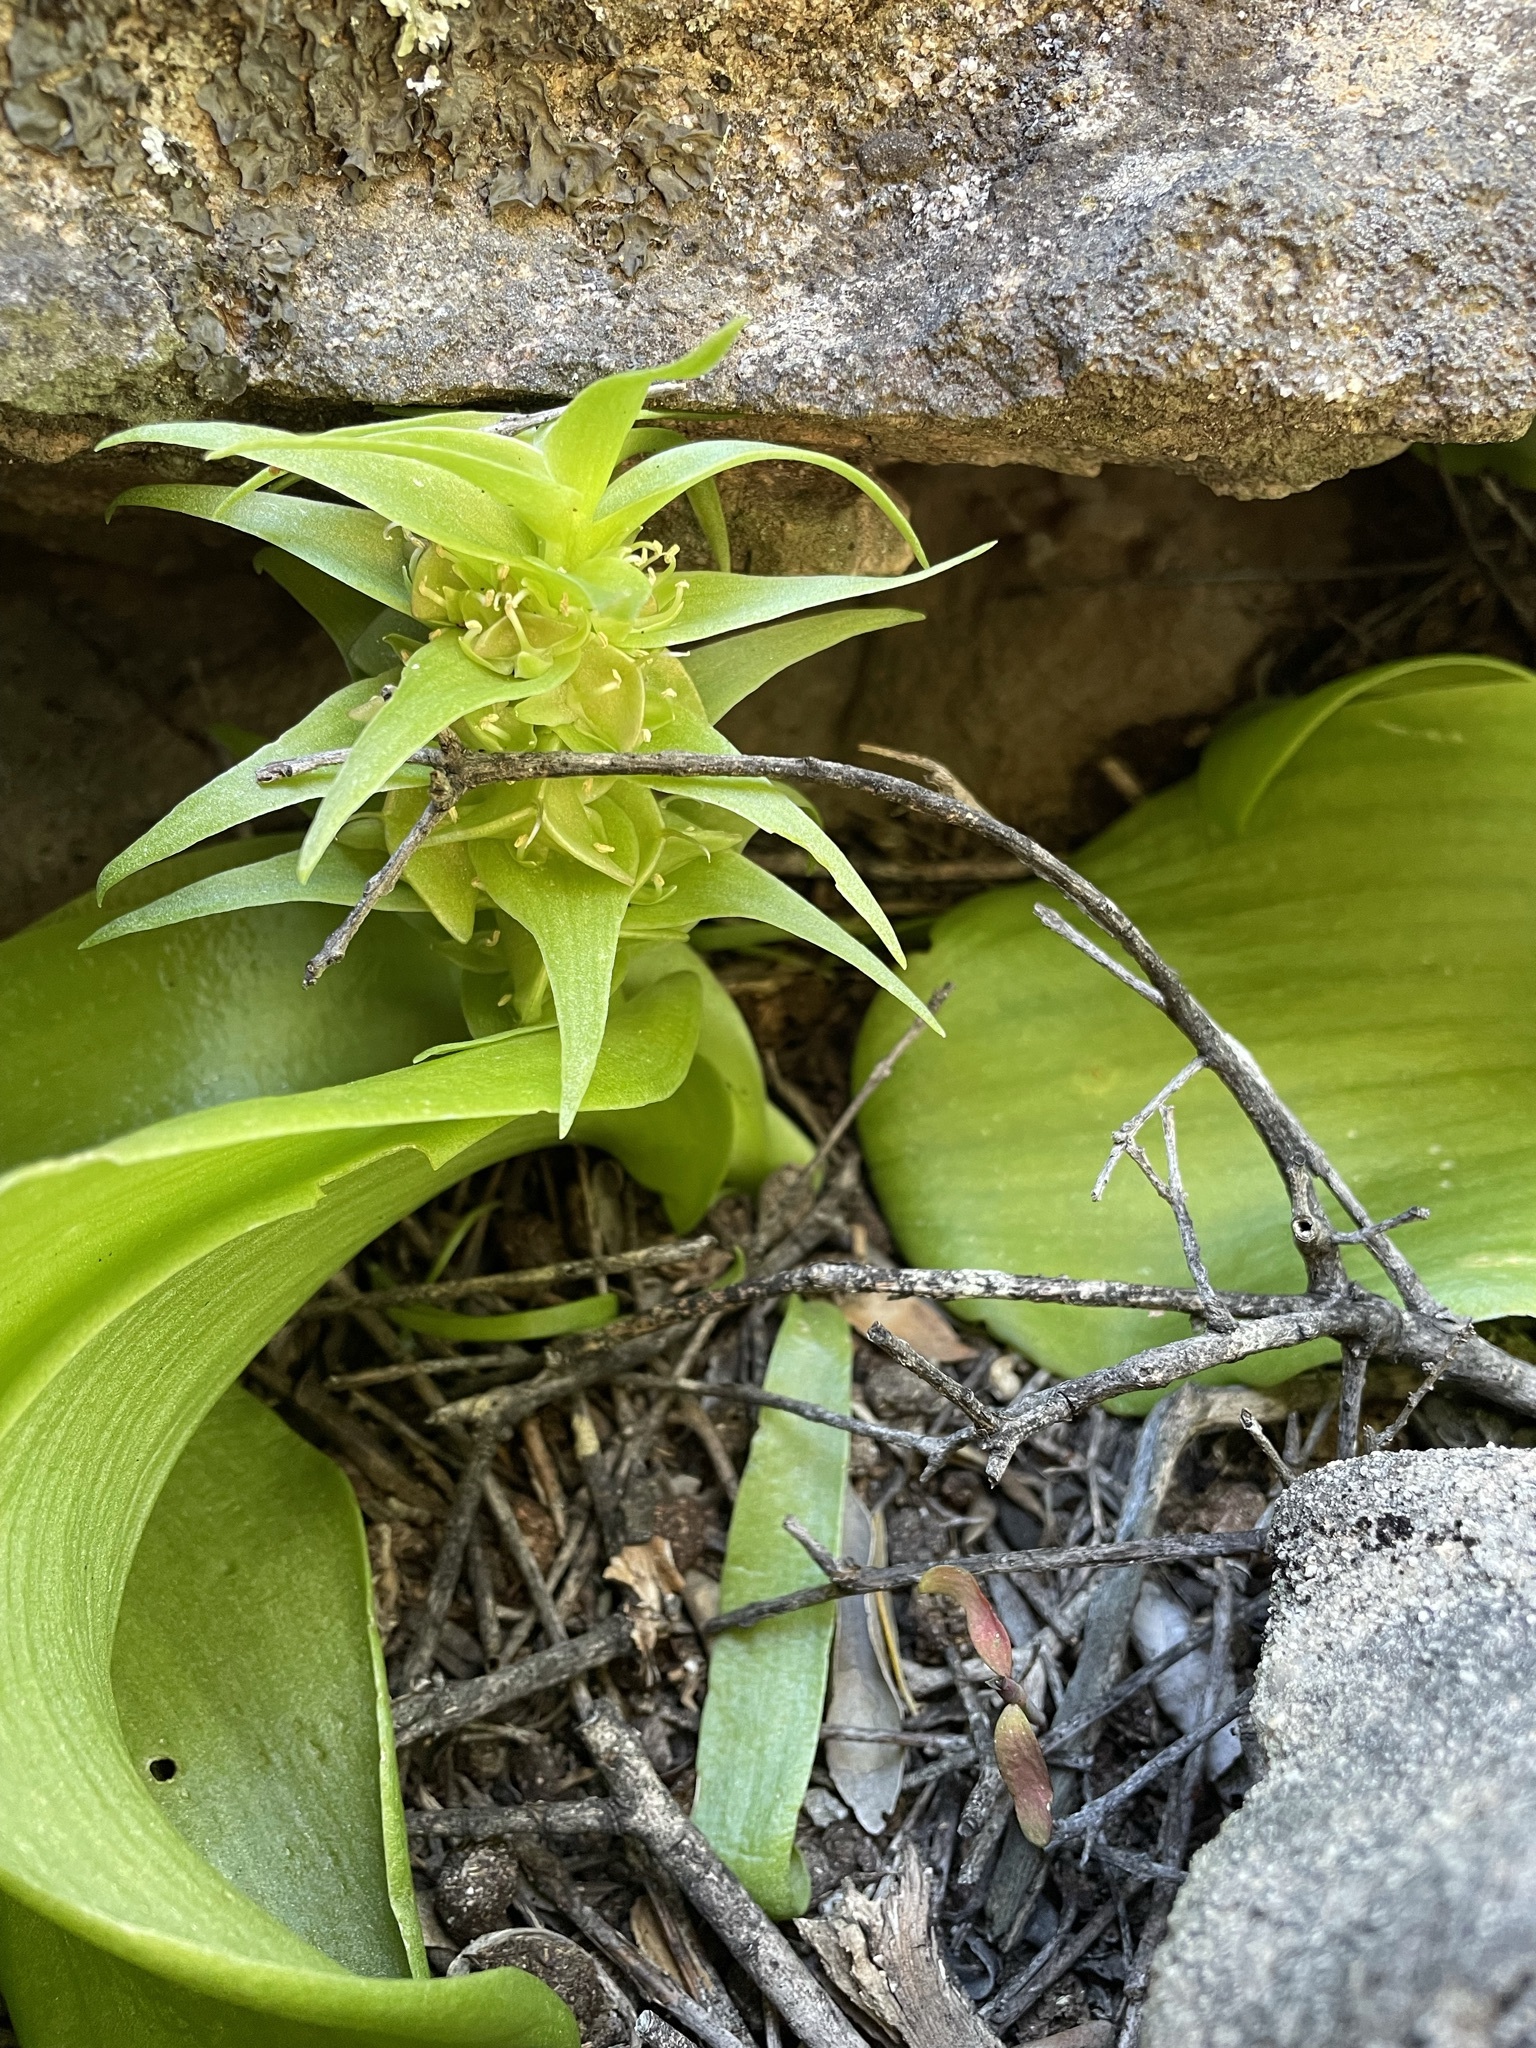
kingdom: Plantae
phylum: Tracheophyta
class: Liliopsida
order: Asparagales
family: Asparagaceae
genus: Massonia
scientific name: Massonia bifolia
